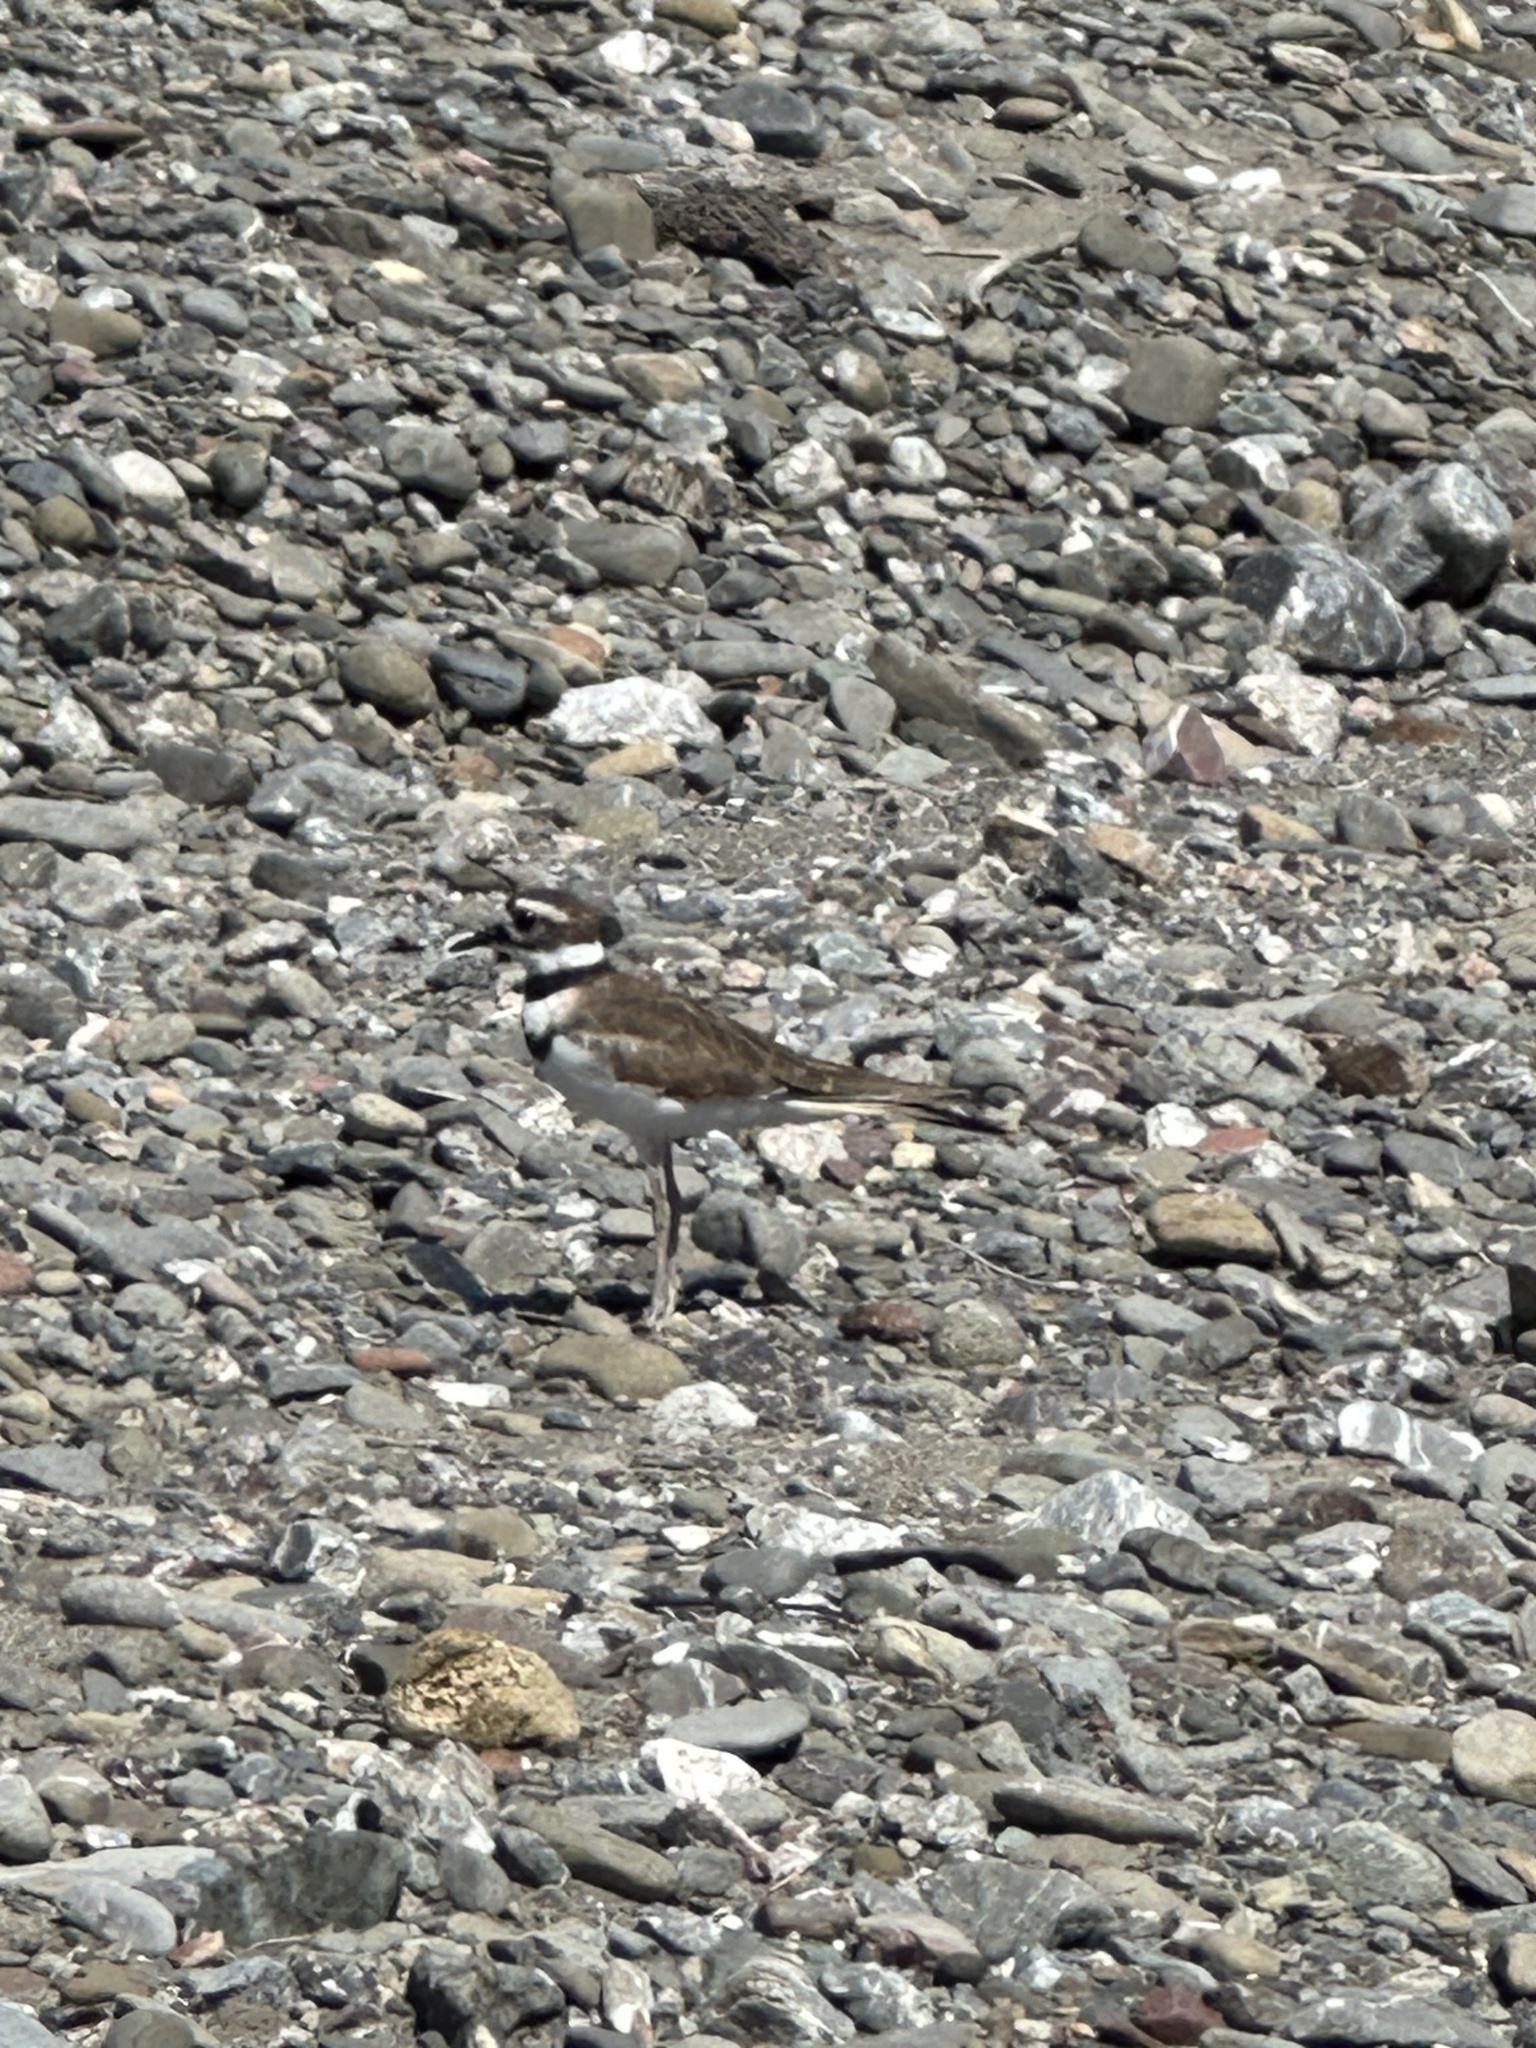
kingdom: Animalia
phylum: Chordata
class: Aves
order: Charadriiformes
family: Charadriidae
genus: Charadrius
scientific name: Charadrius vociferus
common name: Killdeer
